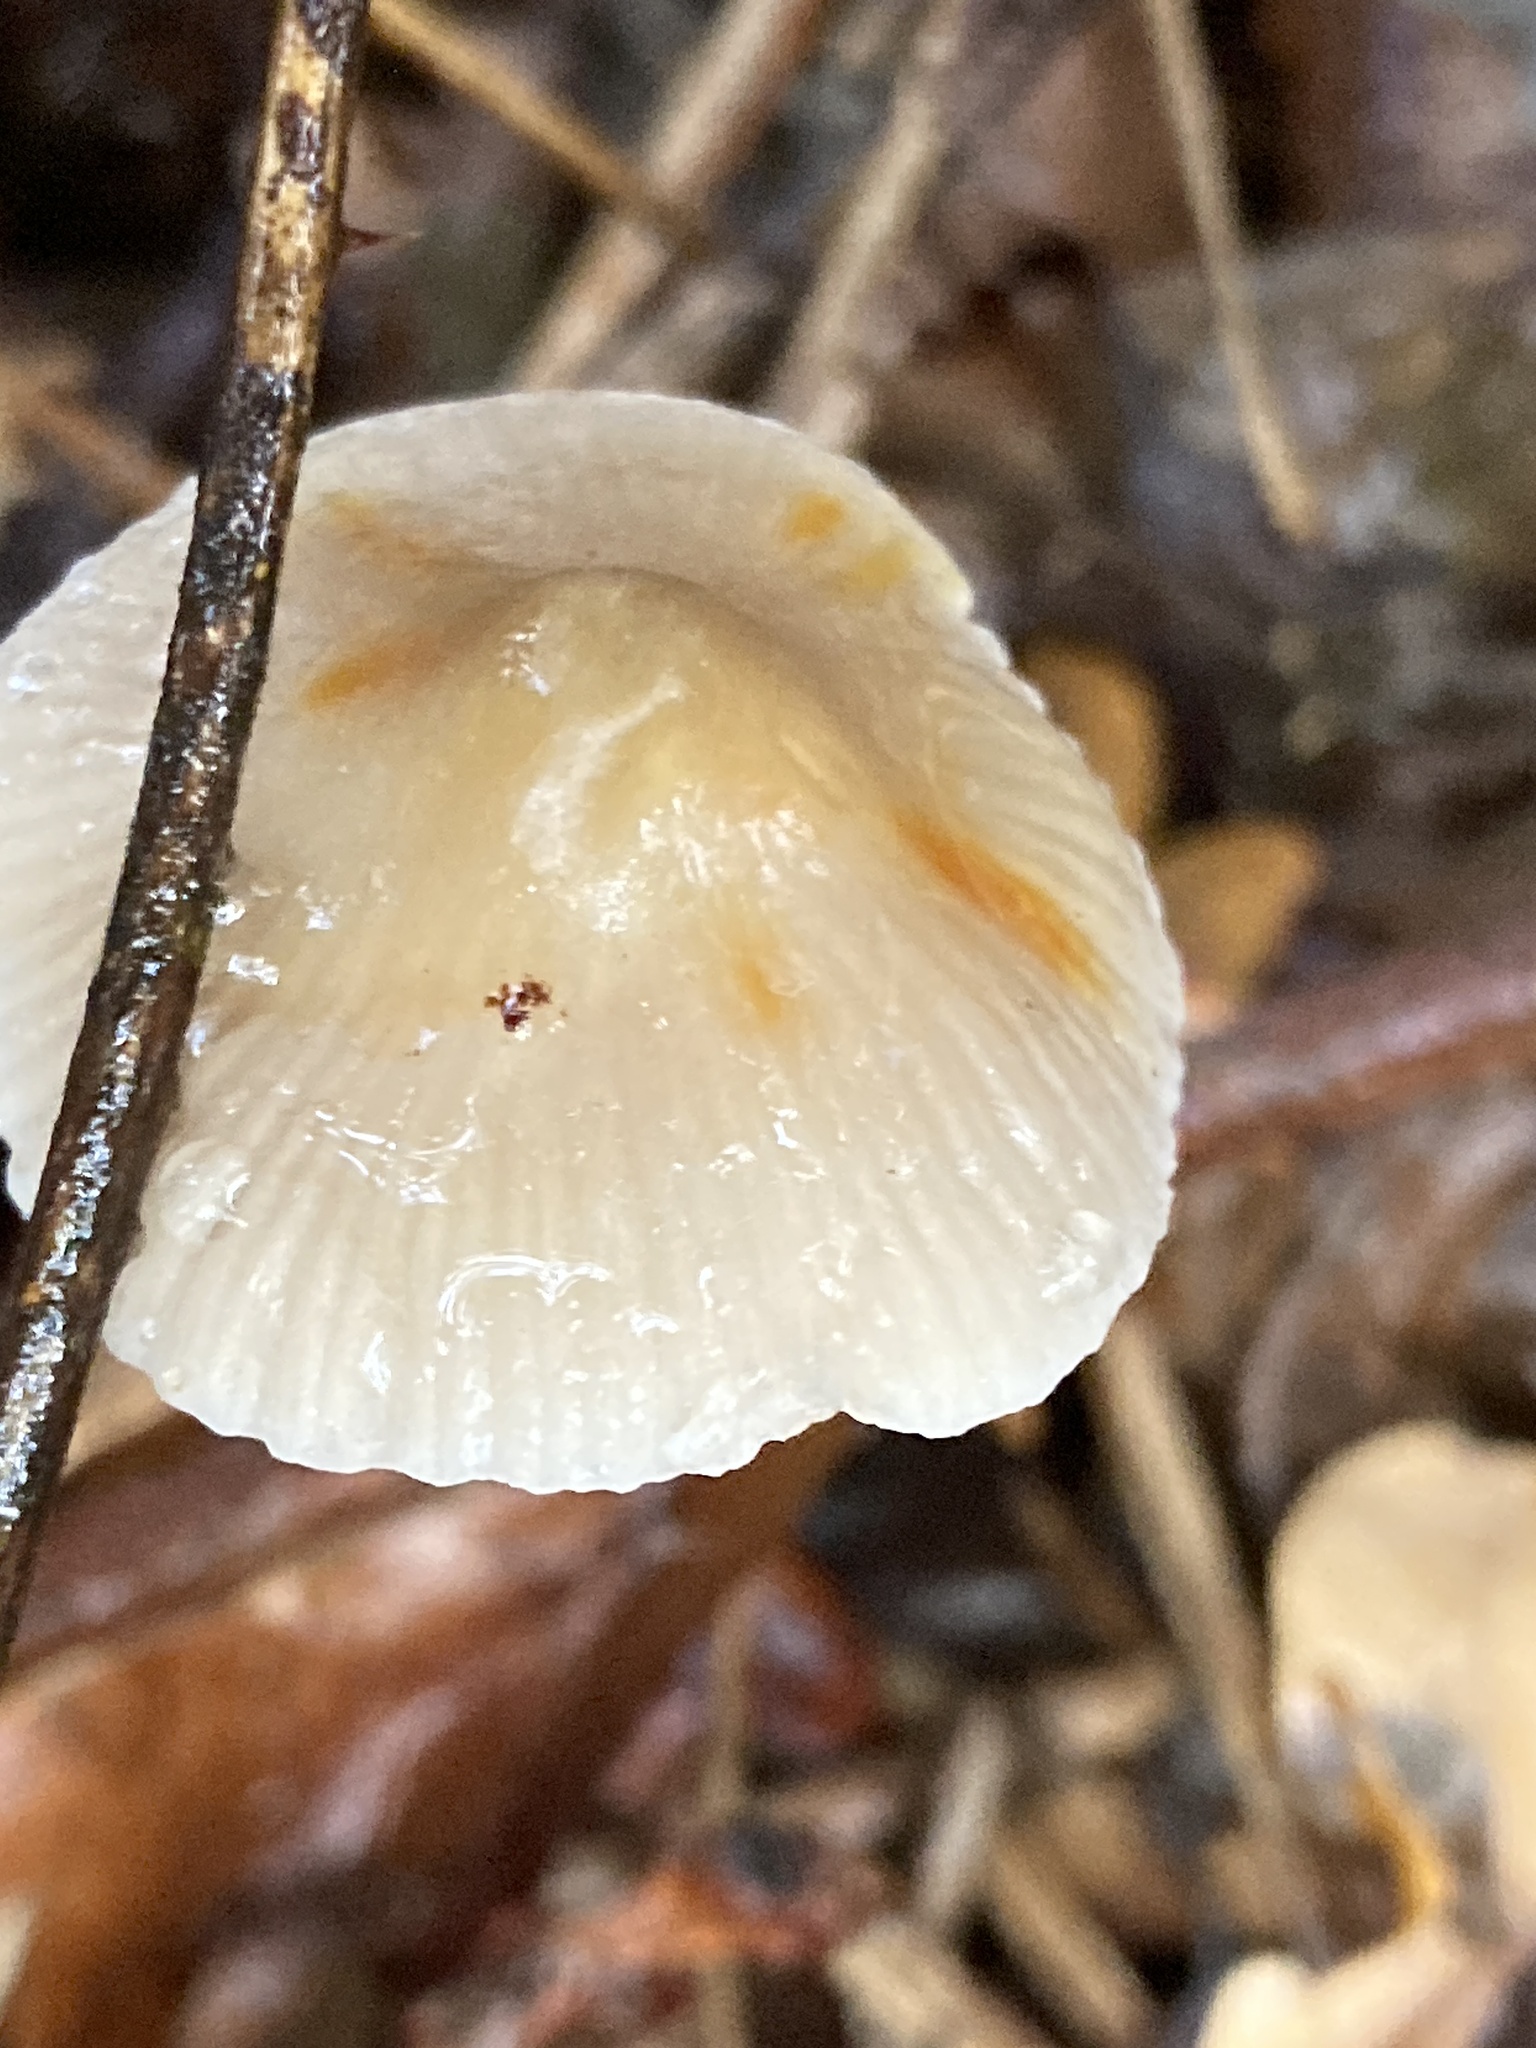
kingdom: Fungi
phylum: Basidiomycota
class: Agaricomycetes
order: Agaricales
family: Mycenaceae
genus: Mycena
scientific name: Mycena crocata
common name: Saffrondrop bonnet
